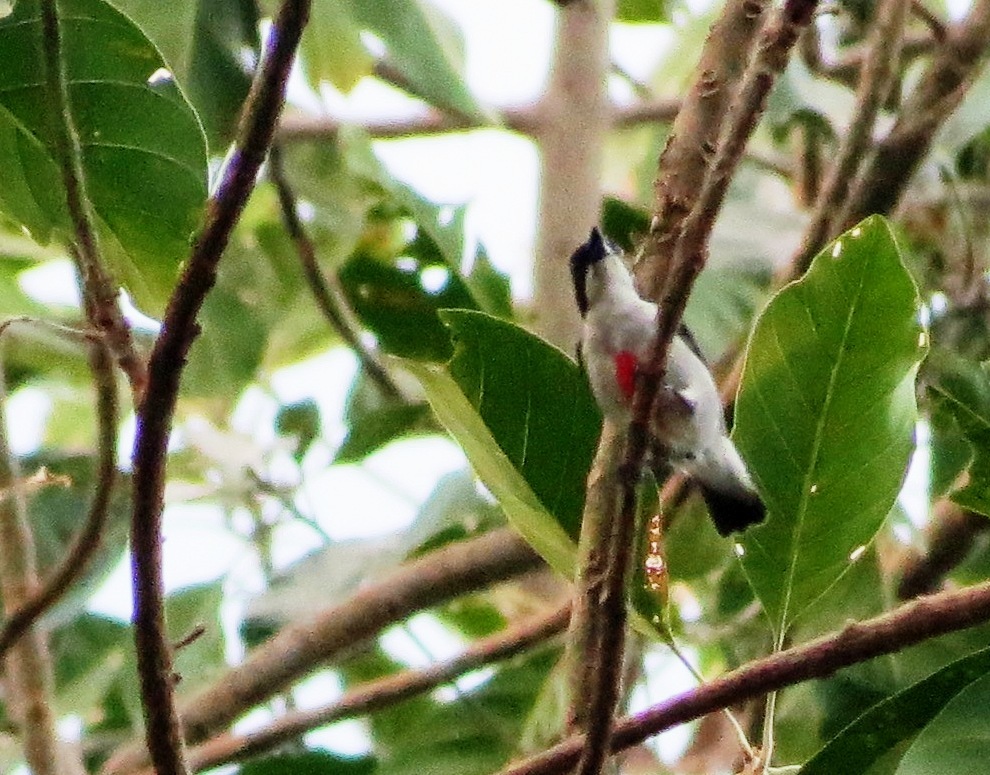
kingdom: Animalia
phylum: Chordata
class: Aves
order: Passeriformes
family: Dicaeidae
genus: Dicaeum
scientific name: Dicaeum australe
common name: Red-keeled flowerpecker
